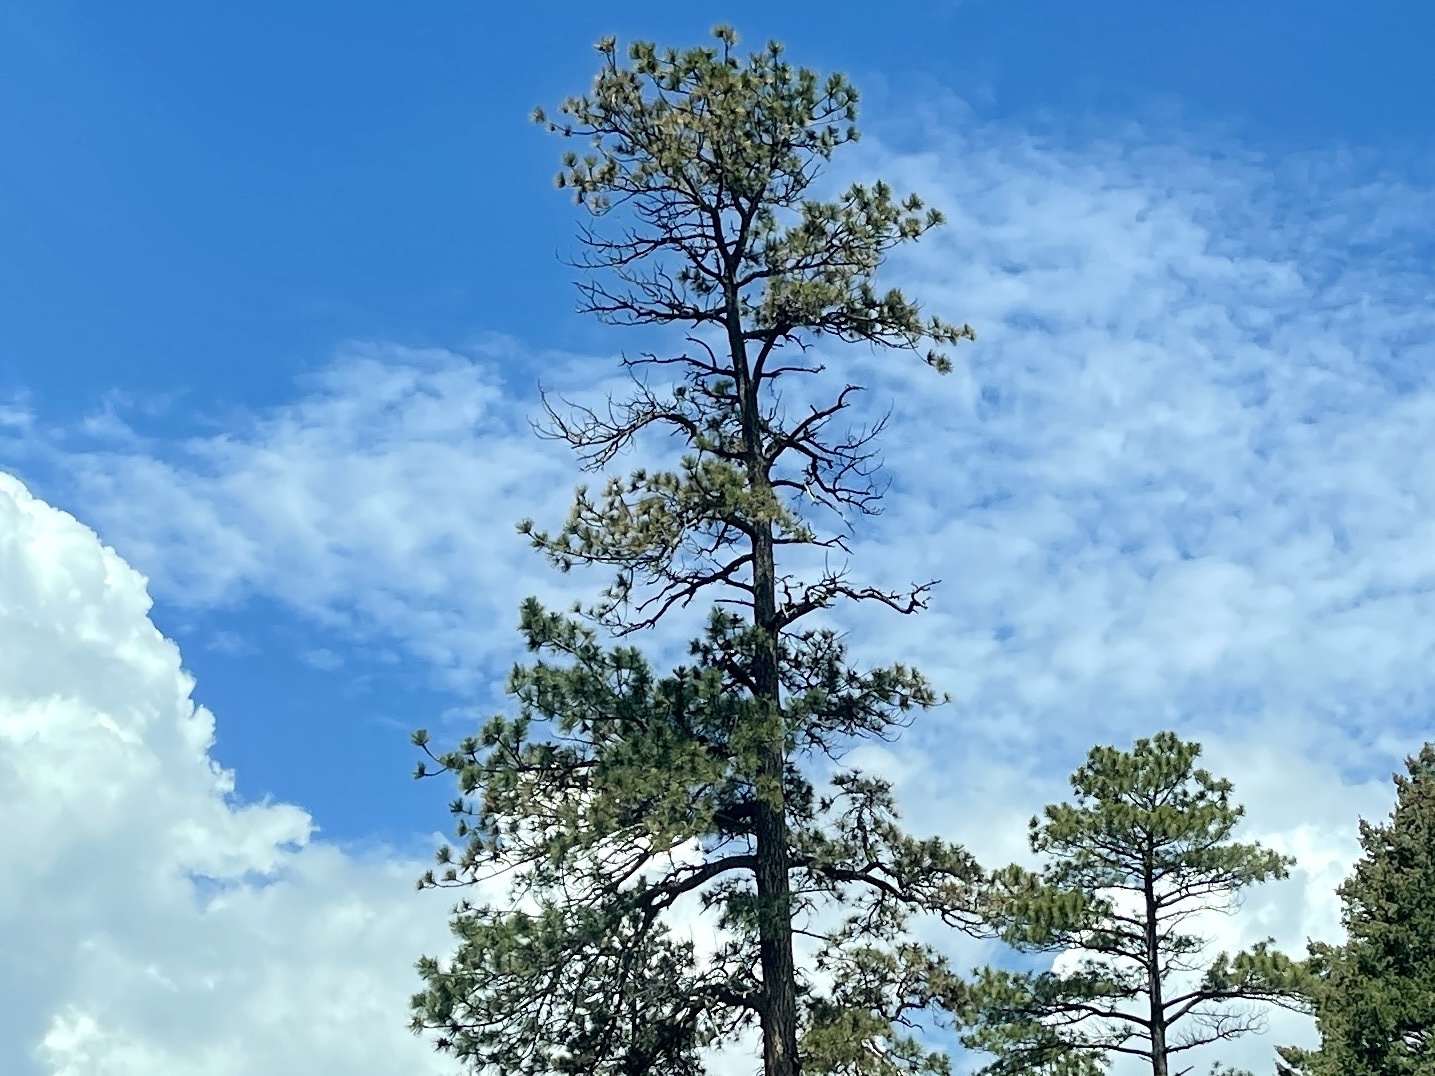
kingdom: Plantae
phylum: Tracheophyta
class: Pinopsida
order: Pinales
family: Pinaceae
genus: Pinus
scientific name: Pinus ponderosa
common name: Western yellow-pine
